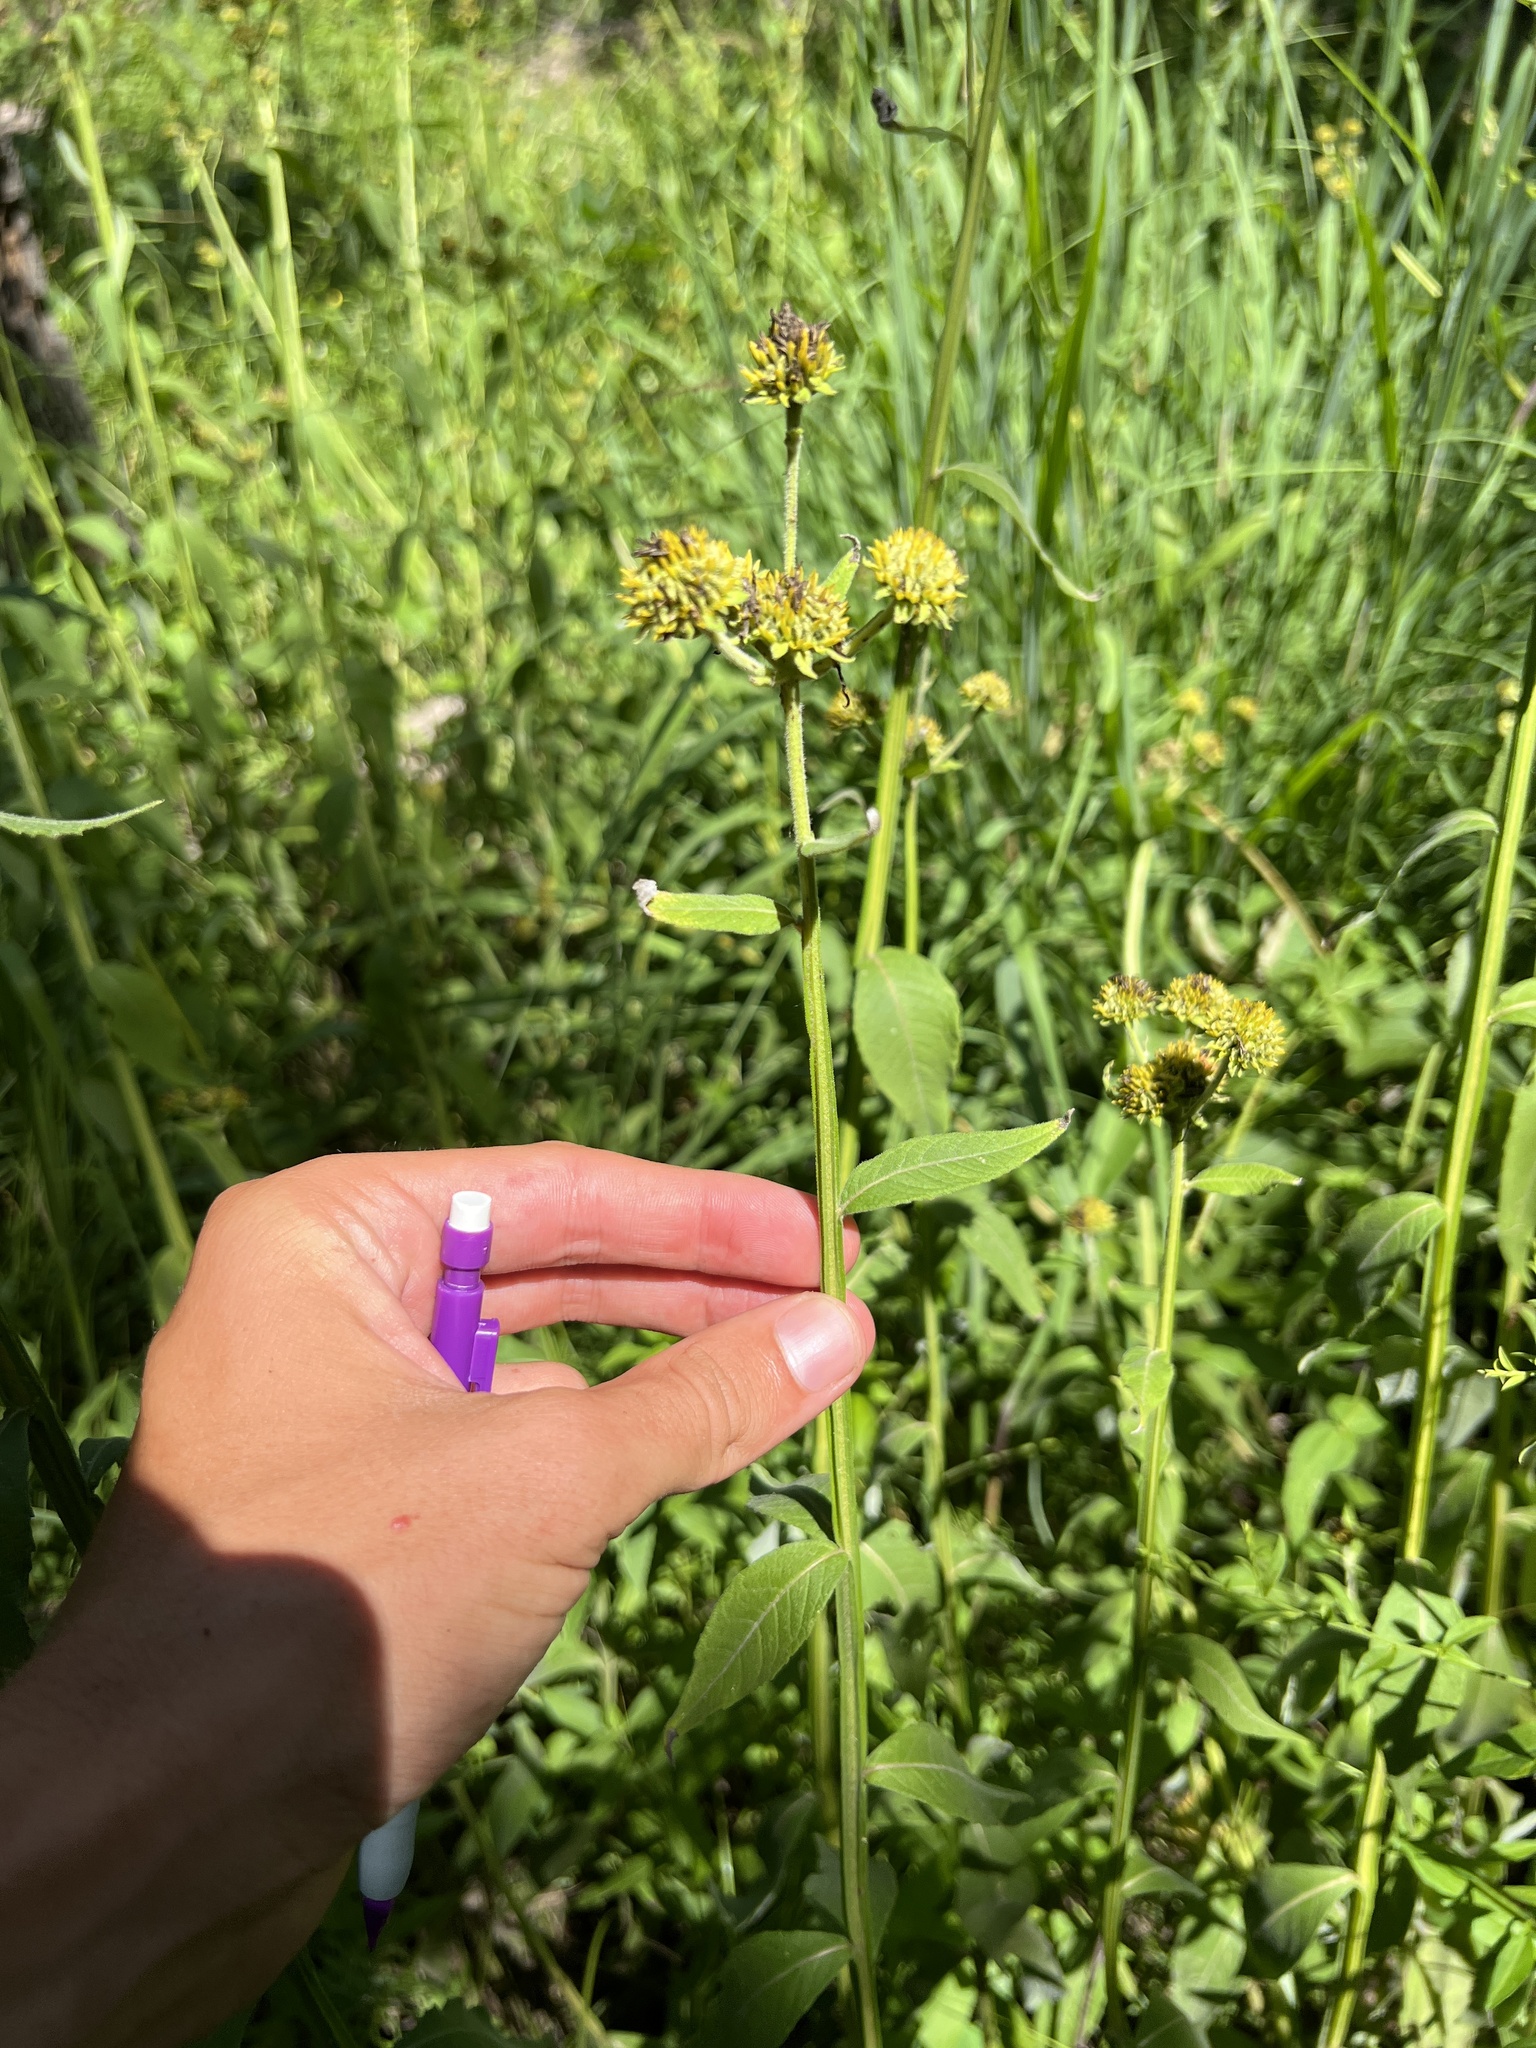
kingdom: Plantae
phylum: Tracheophyta
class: Magnoliopsida
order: Asterales
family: Asteraceae
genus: Verbesina
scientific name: Verbesina helianthoides
